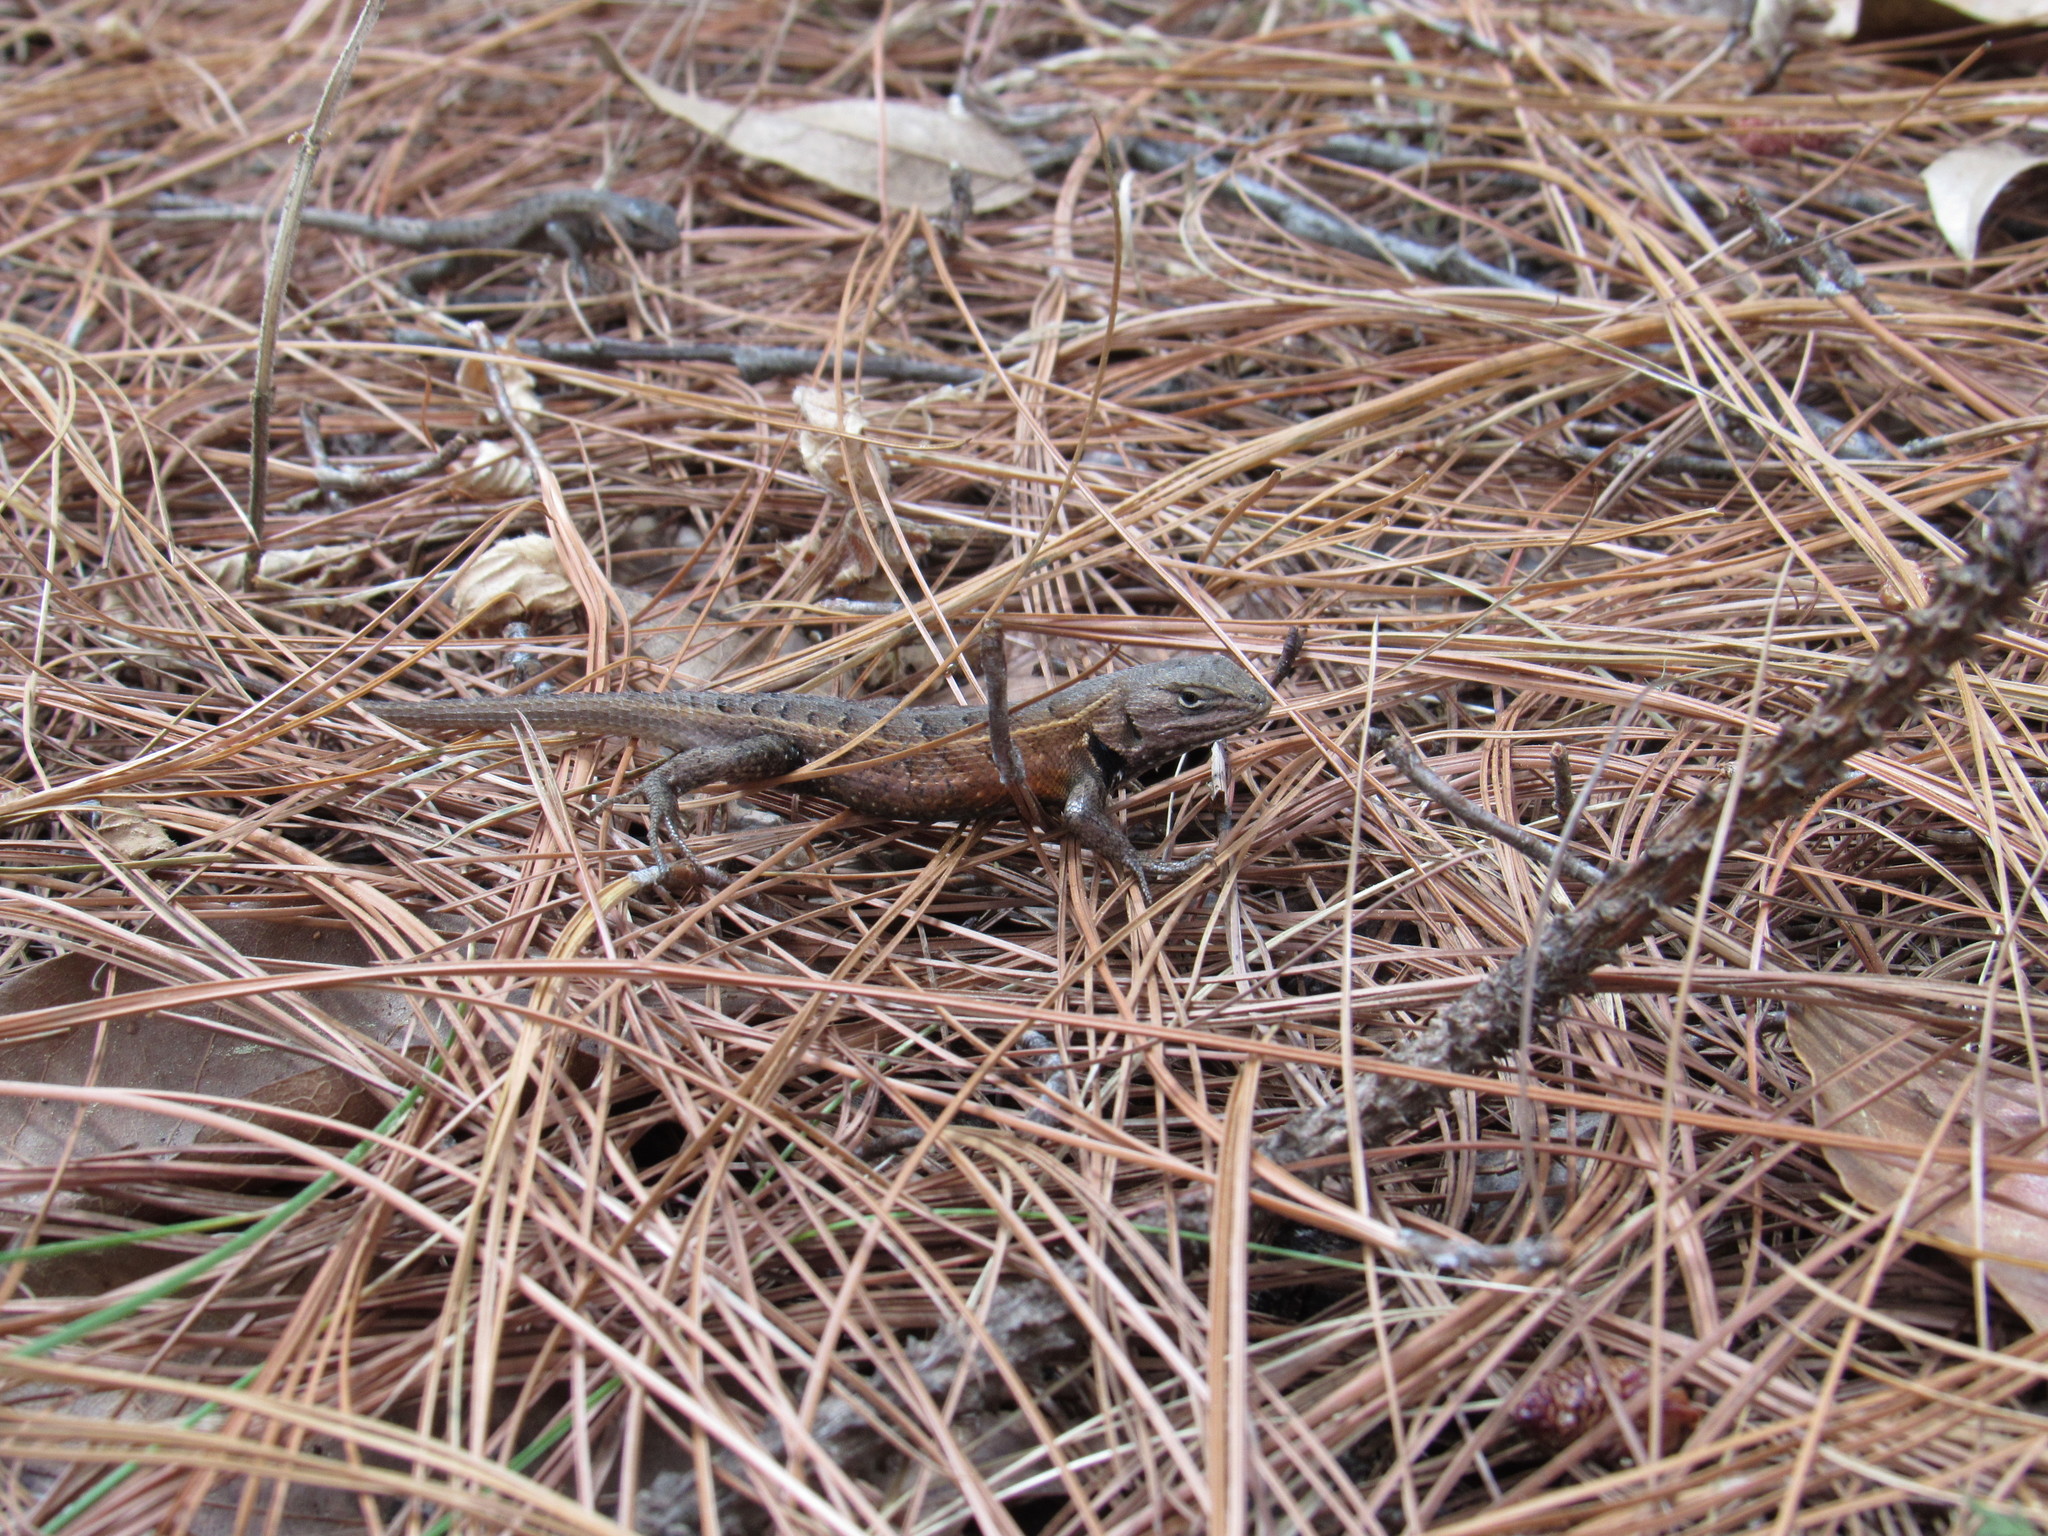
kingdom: Animalia
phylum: Chordata
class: Squamata
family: Phrynosomatidae
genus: Sceloporus
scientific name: Sceloporus subniger
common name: Plateau bunchgrass lizard
